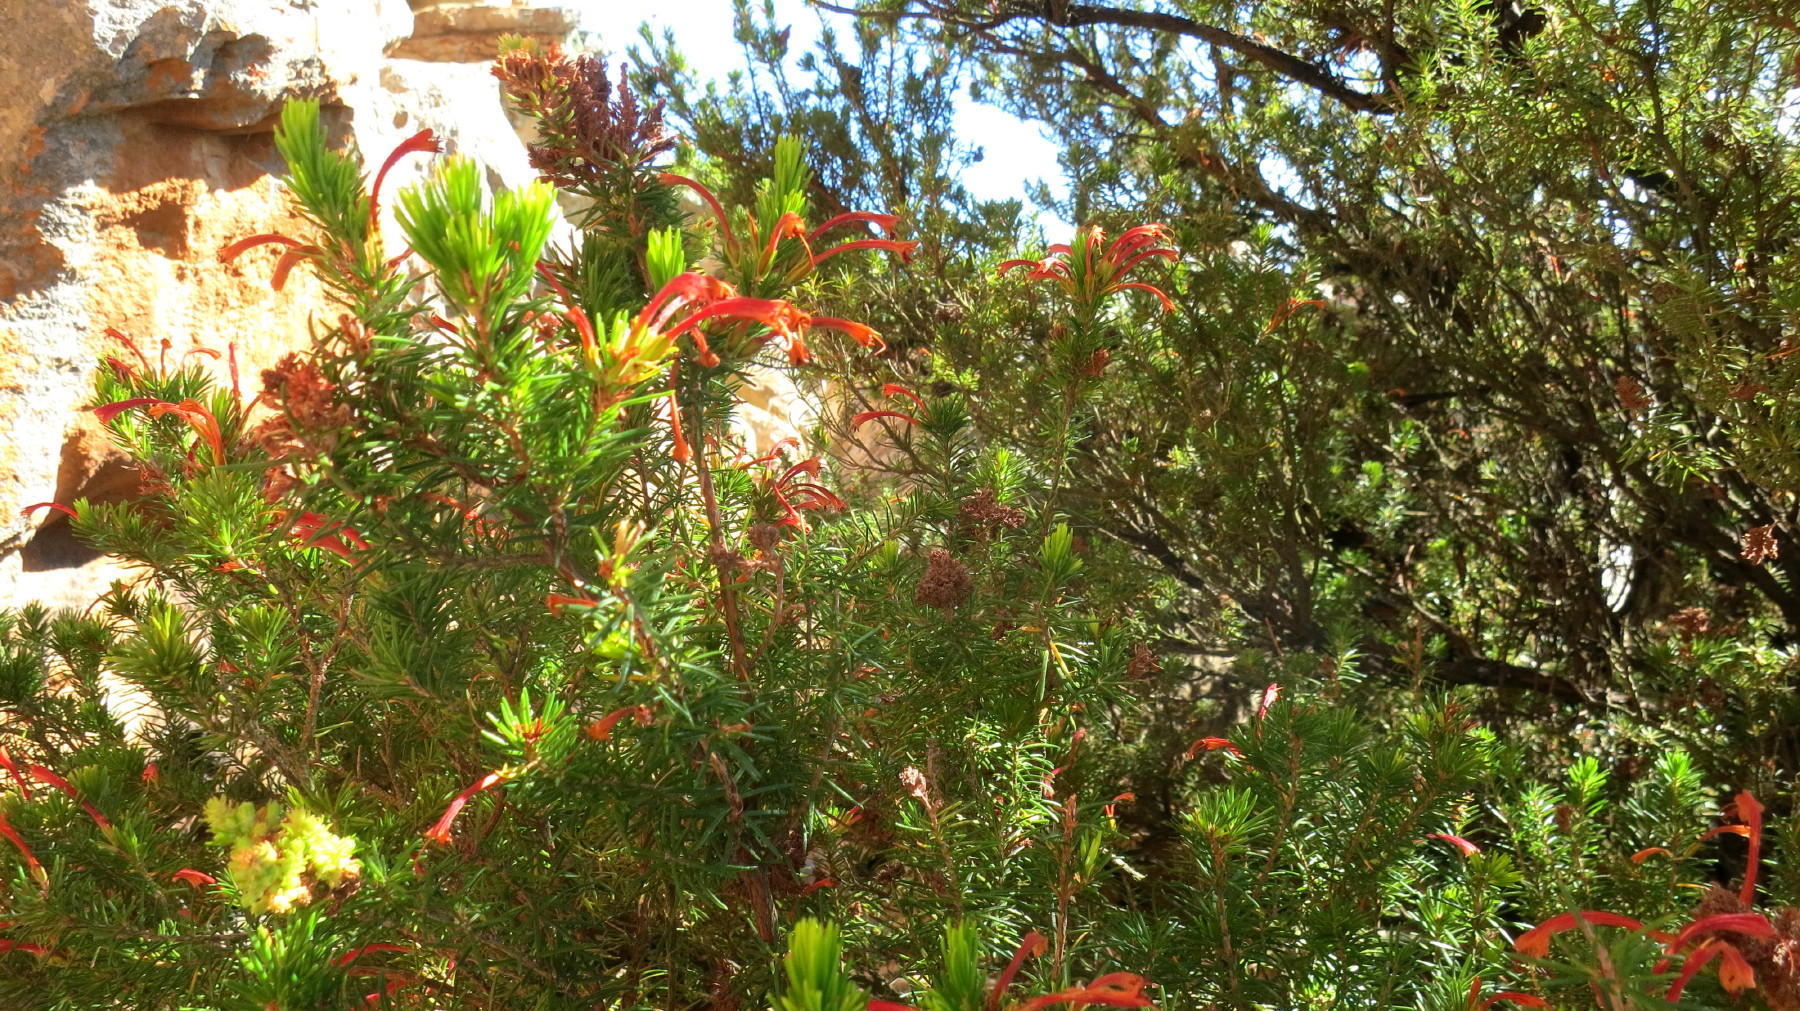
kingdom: Plantae
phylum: Tracheophyta
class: Magnoliopsida
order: Ericales
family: Ericaceae
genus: Erica
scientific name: Erica curviflora
